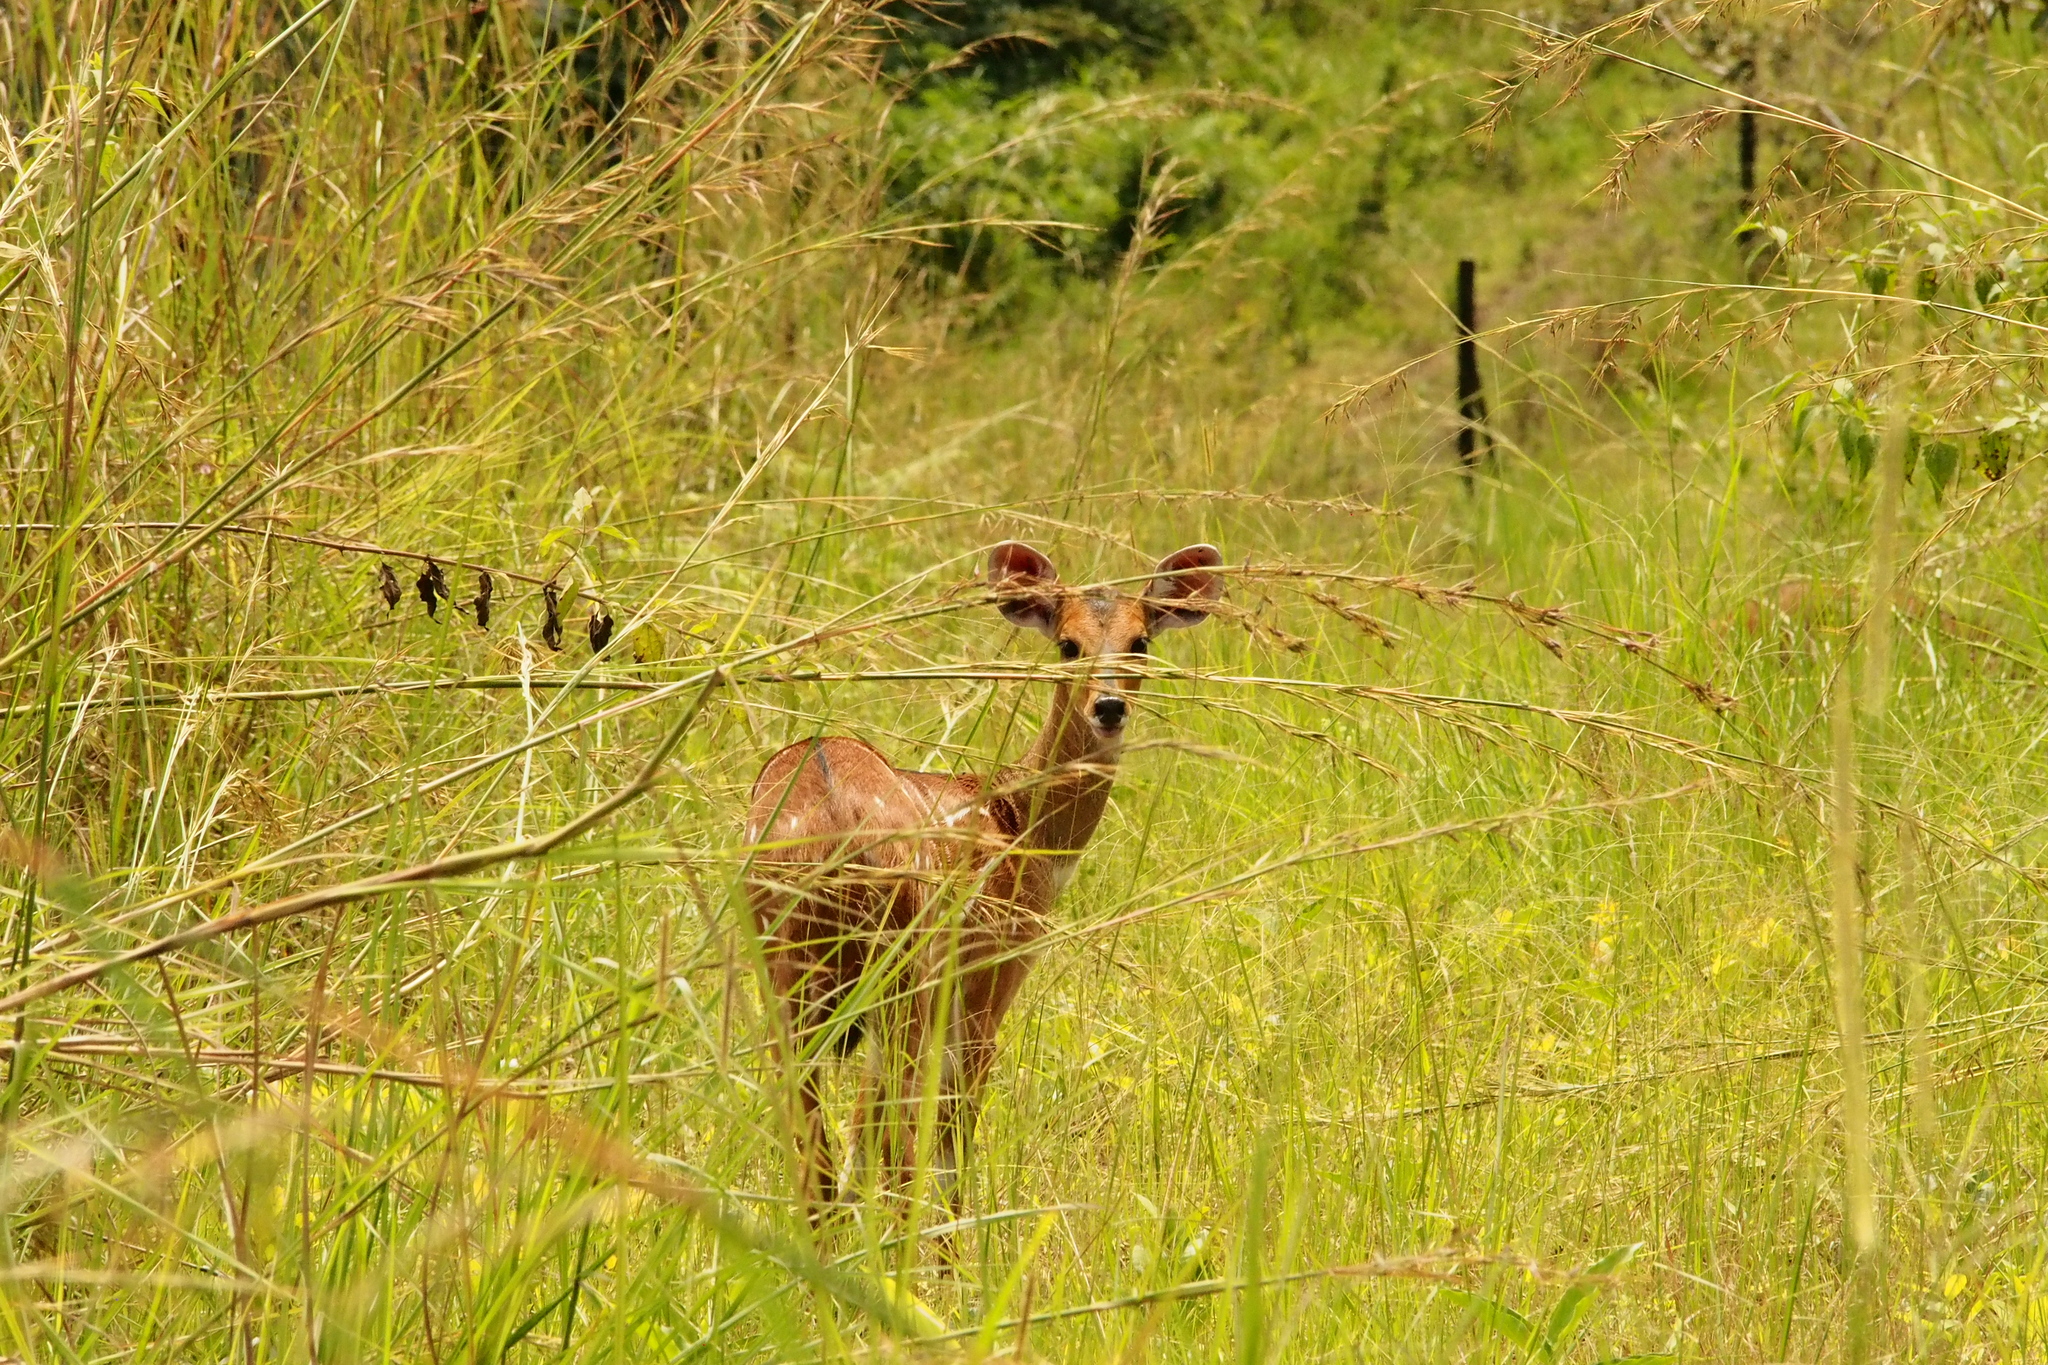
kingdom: Animalia
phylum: Chordata
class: Mammalia
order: Artiodactyla
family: Bovidae
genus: Tragelaphus
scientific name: Tragelaphus scriptus
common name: Bushbuck
